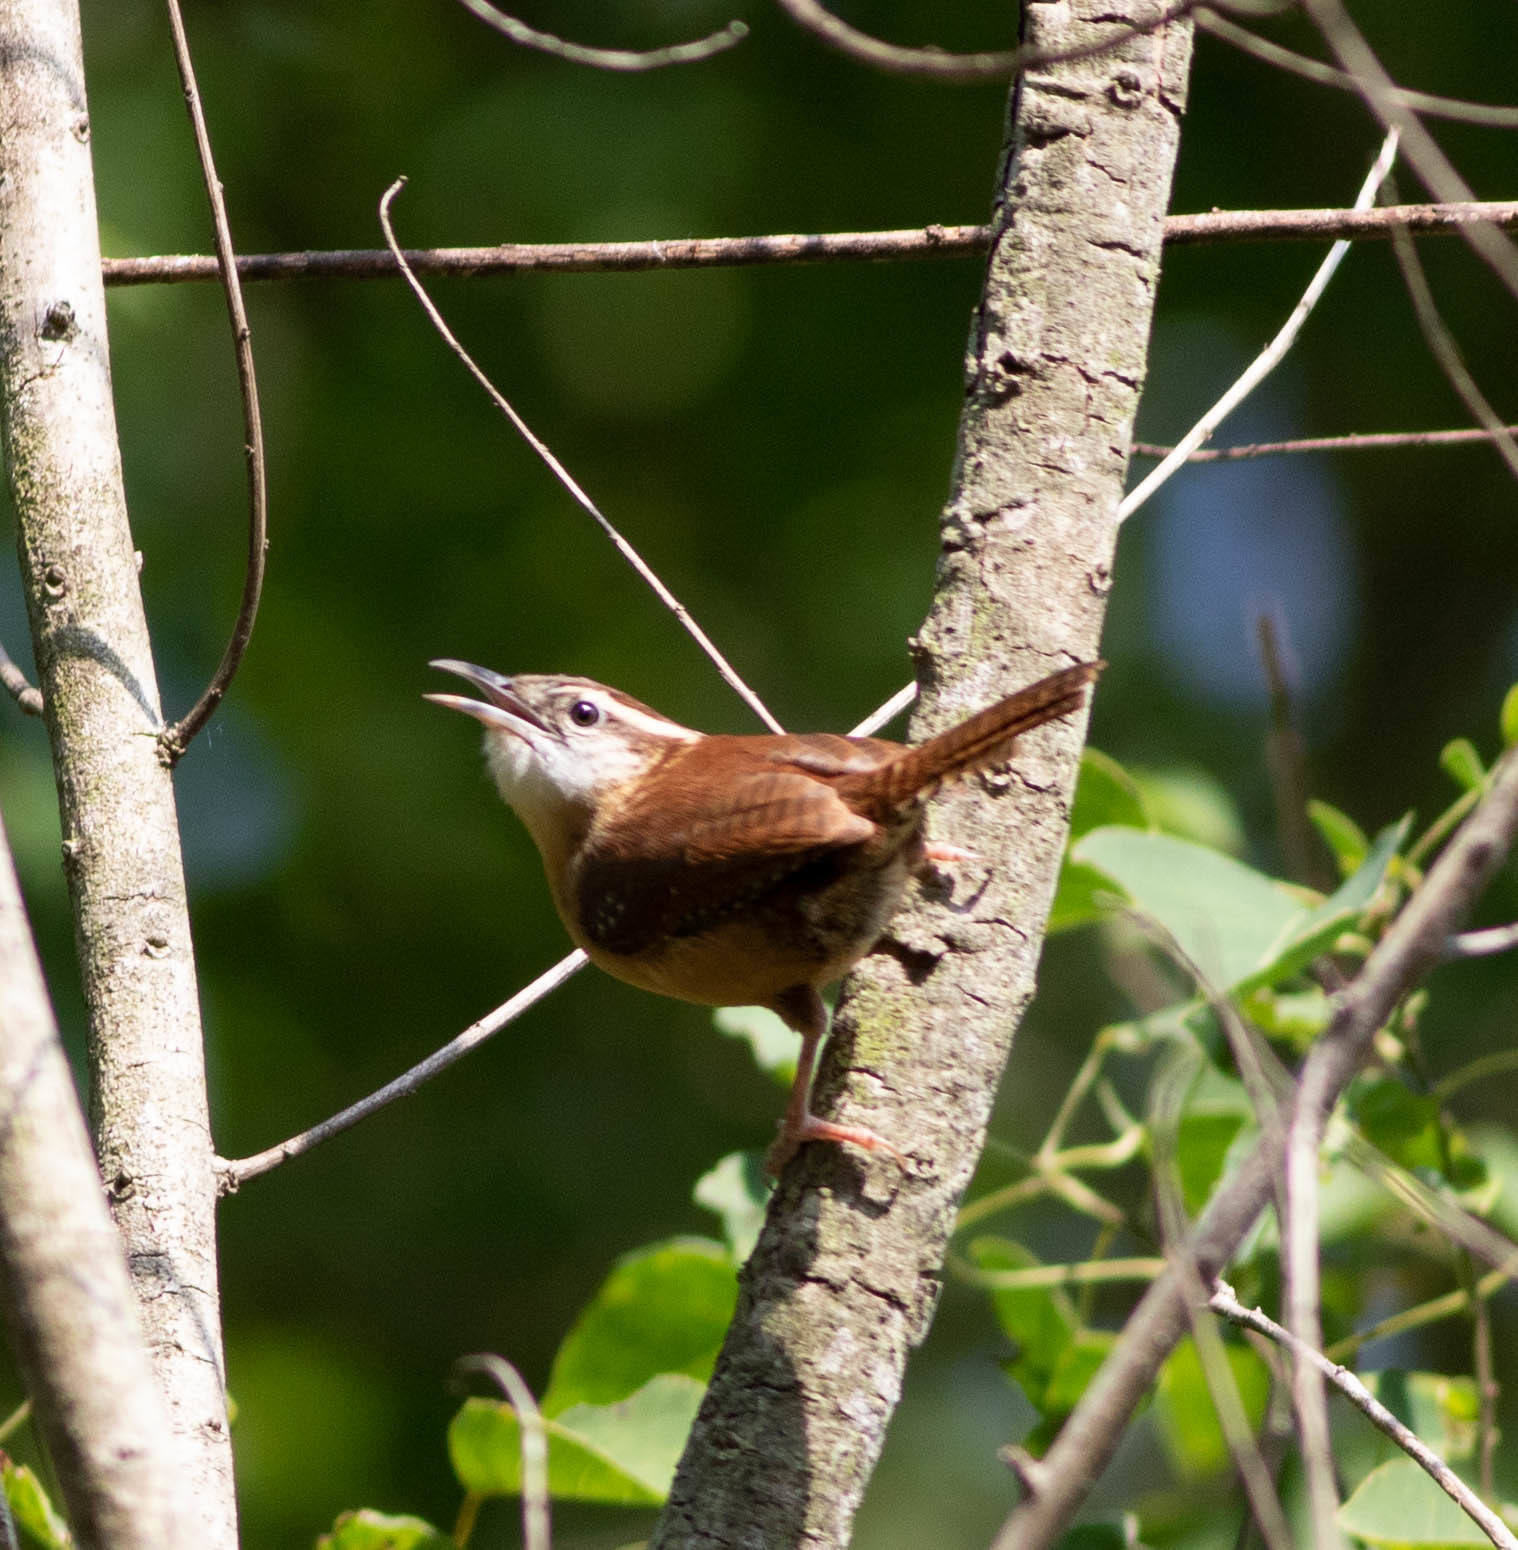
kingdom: Animalia
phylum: Chordata
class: Aves
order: Passeriformes
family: Troglodytidae
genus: Thryothorus
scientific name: Thryothorus ludovicianus
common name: Carolina wren
